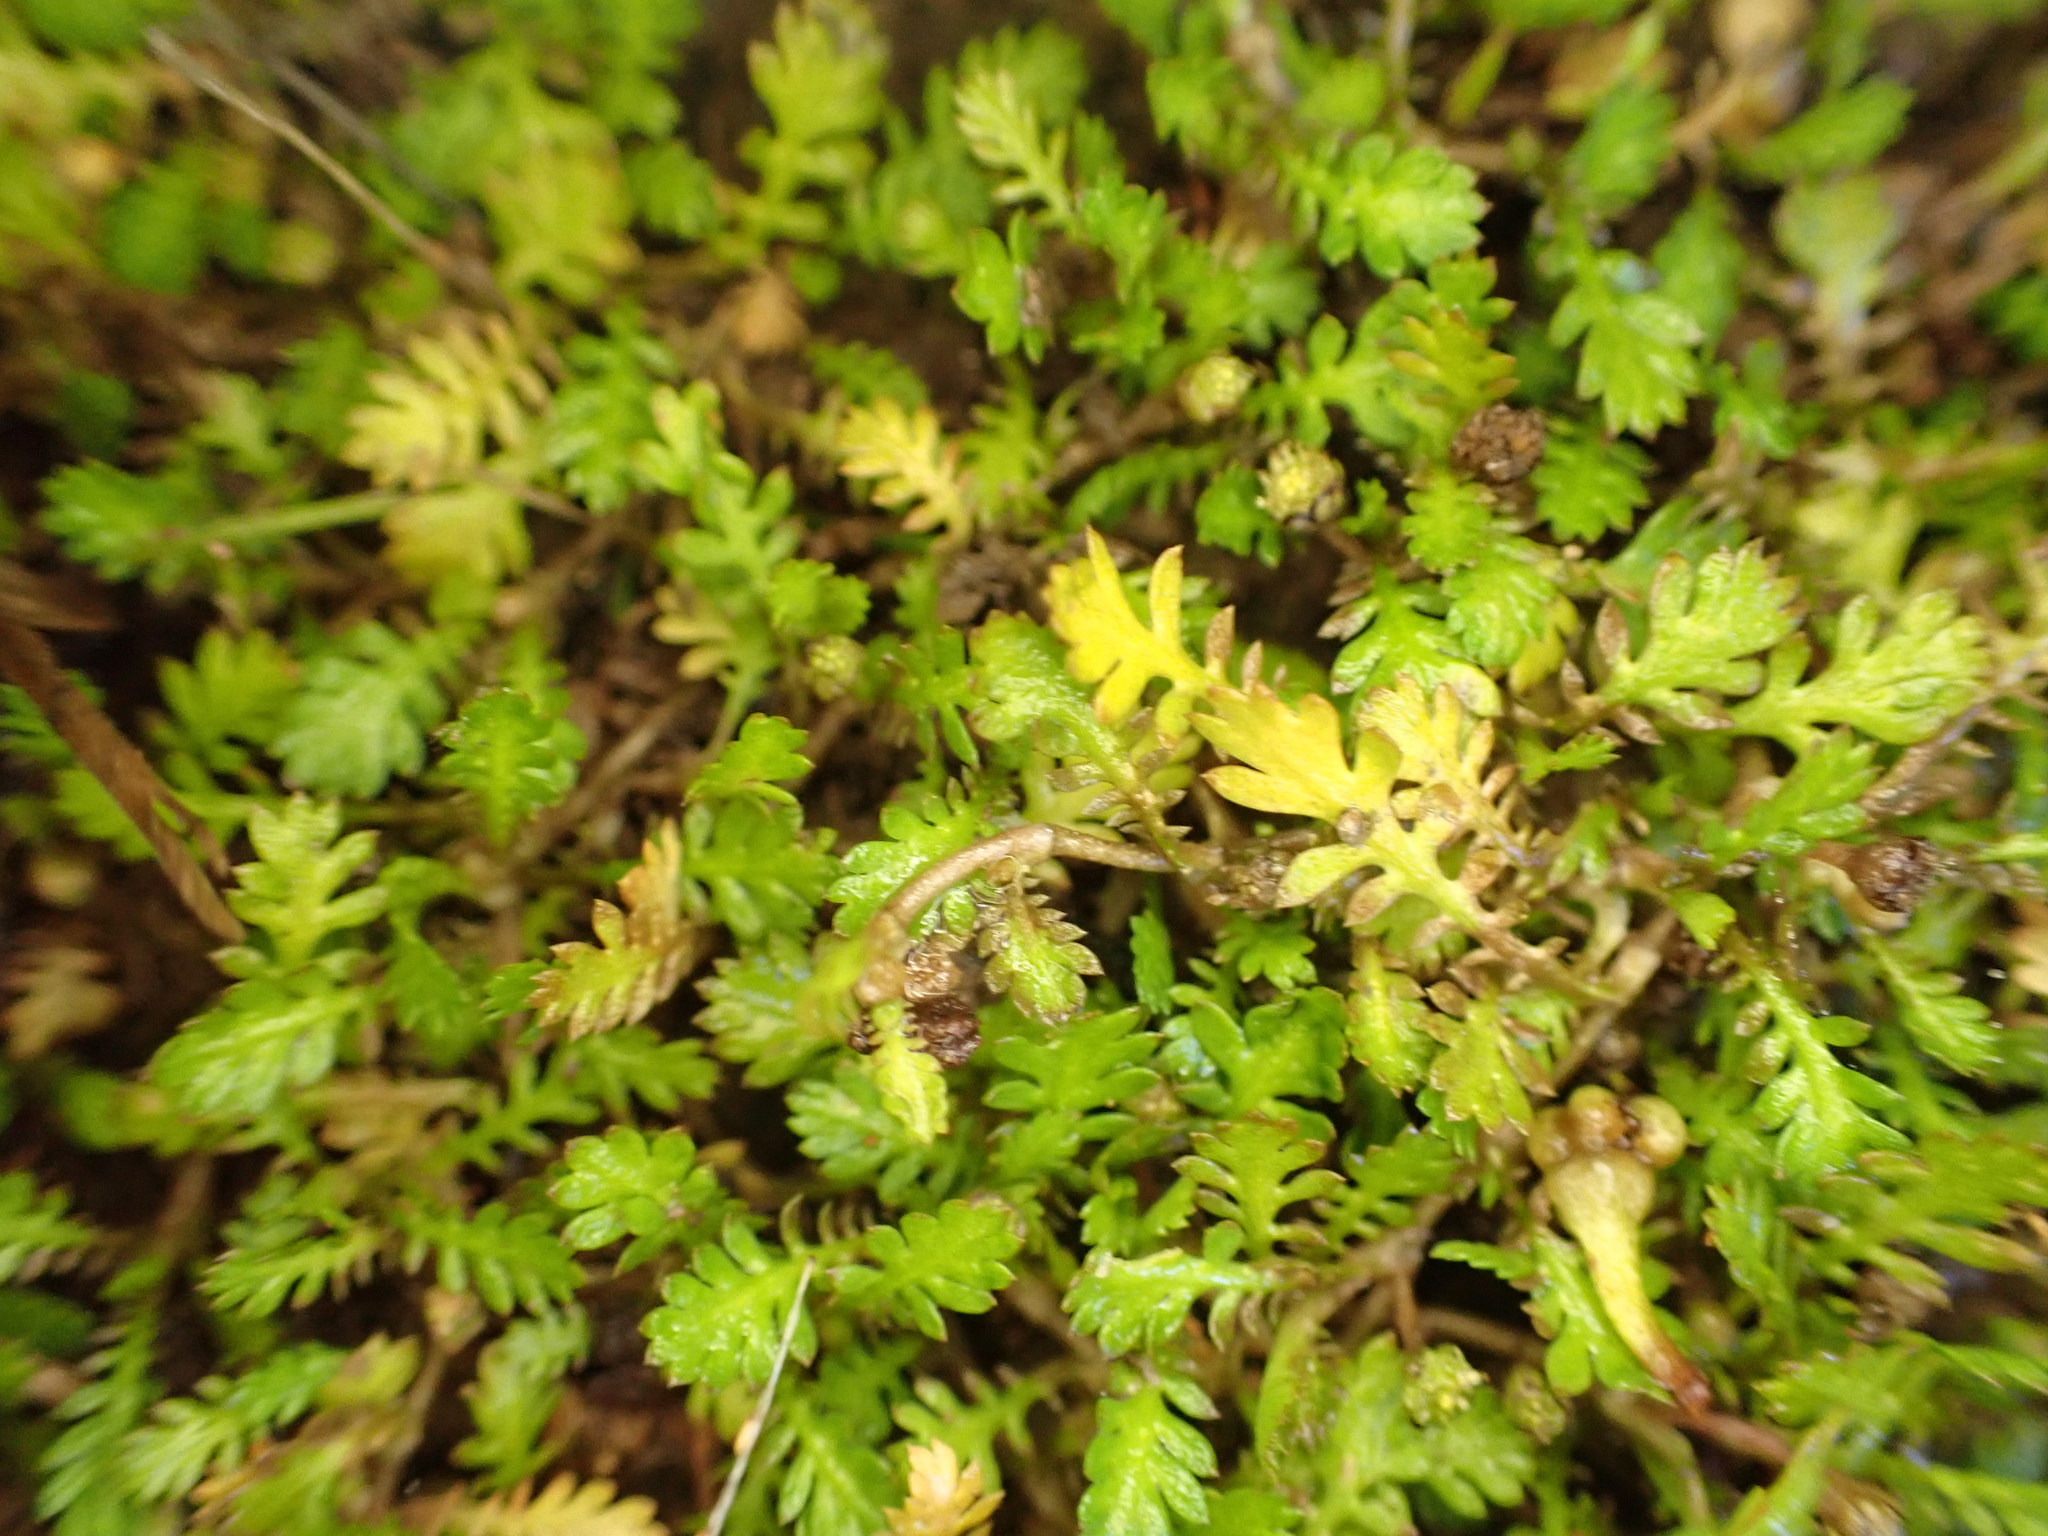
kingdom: Plantae
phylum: Tracheophyta
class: Magnoliopsida
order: Asterales
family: Asteraceae
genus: Leptinella
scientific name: Leptinella nana
